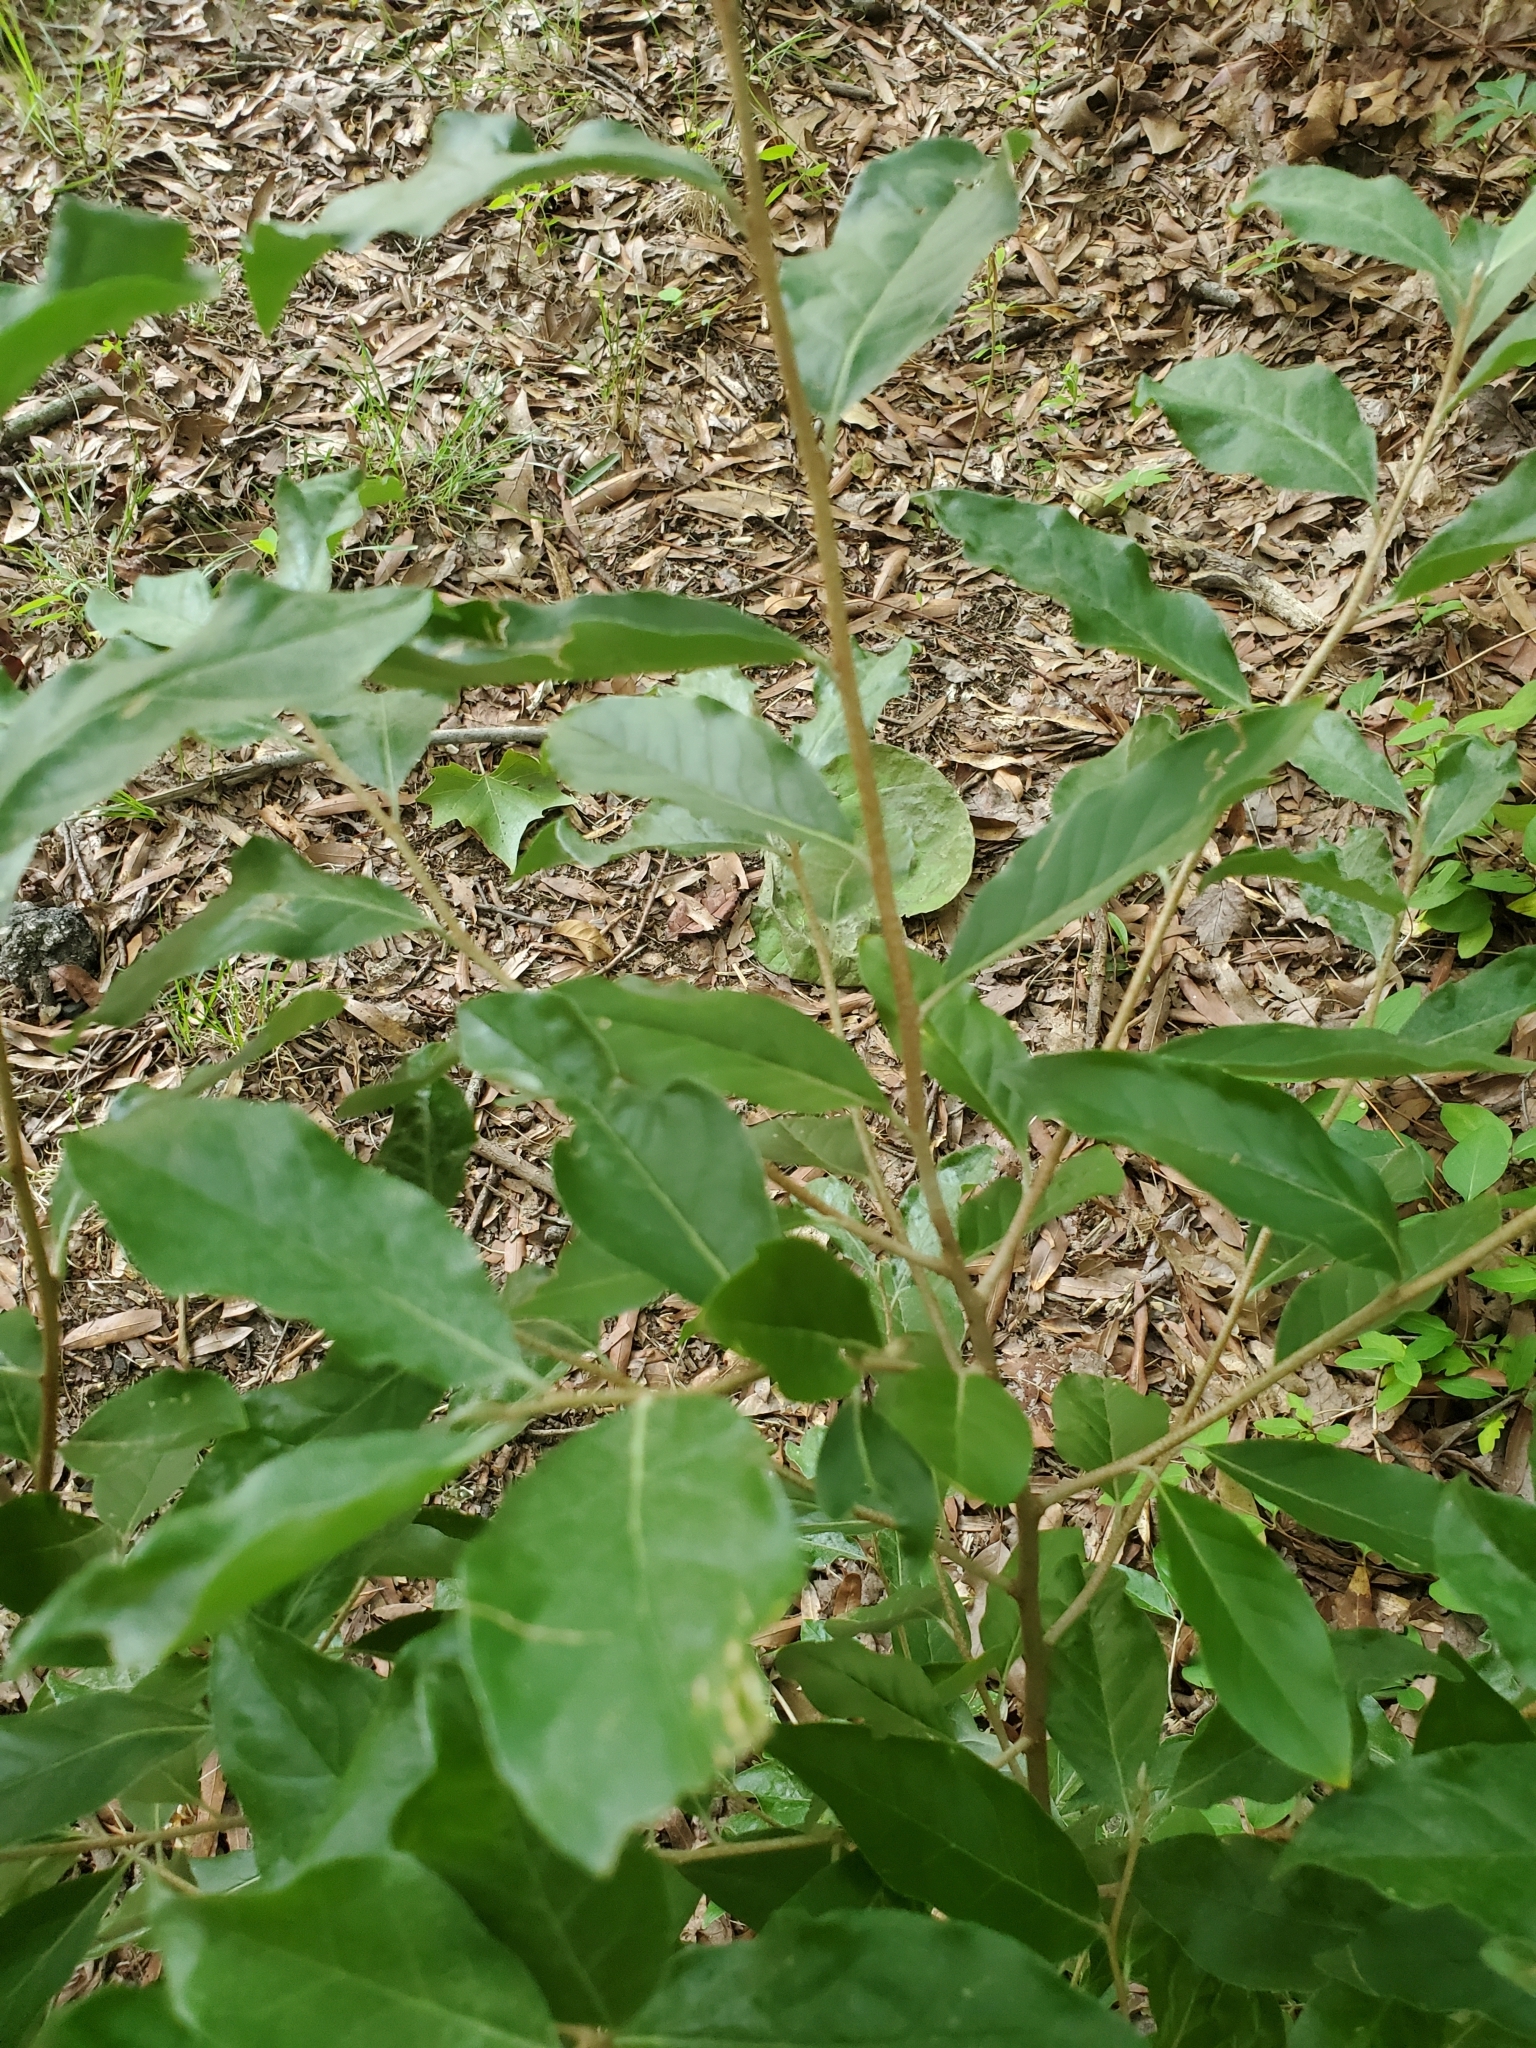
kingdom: Plantae
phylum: Tracheophyta
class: Magnoliopsida
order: Rosales
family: Elaeagnaceae
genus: Elaeagnus
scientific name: Elaeagnus umbellata
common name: Autumn olive
